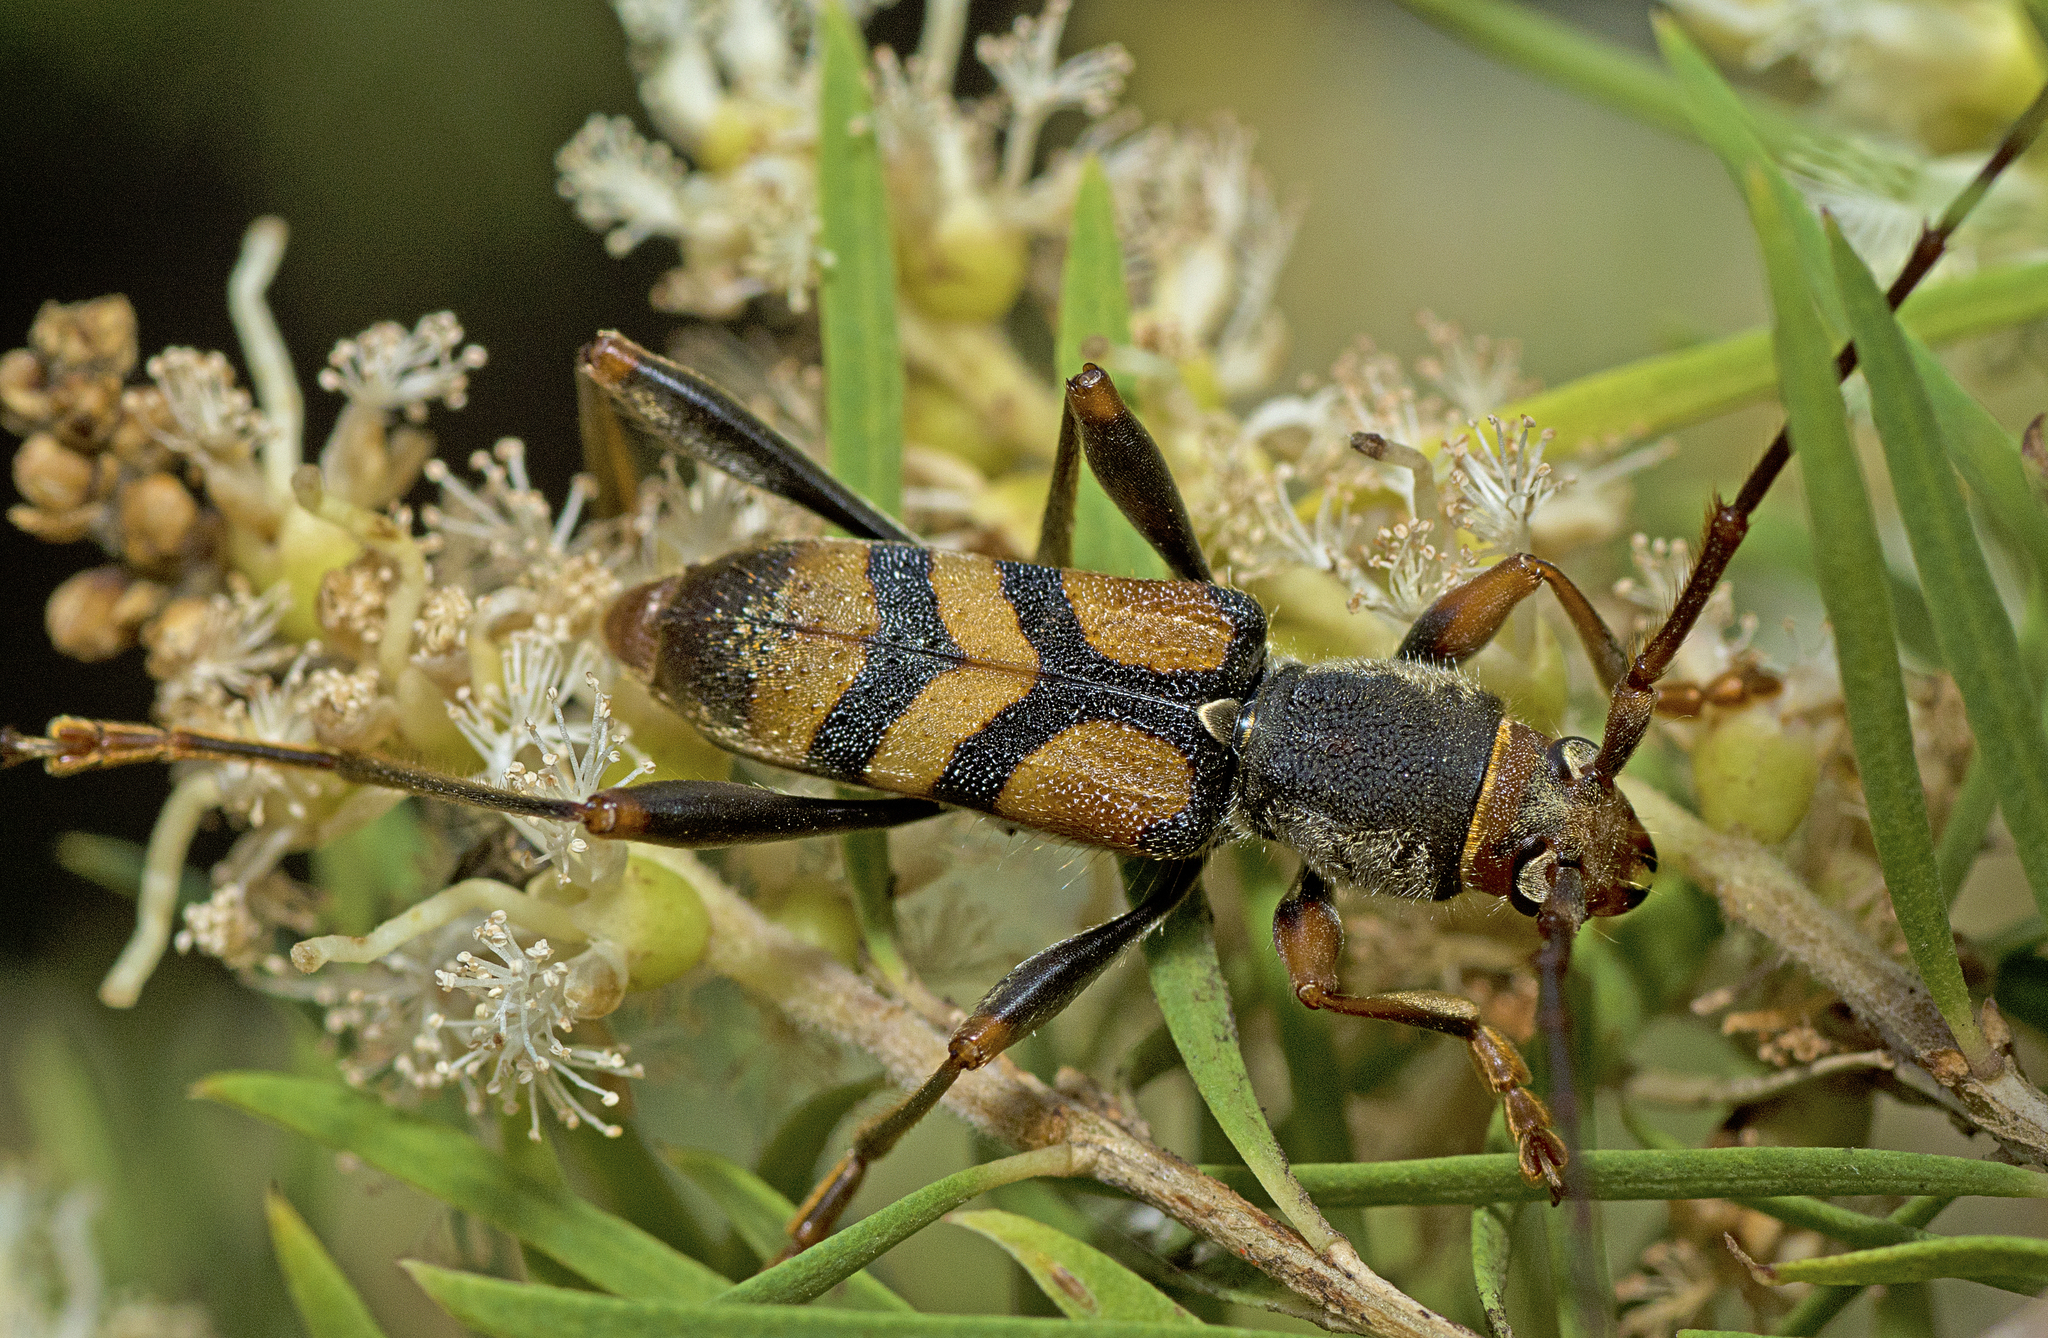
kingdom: Animalia
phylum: Arthropoda
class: Insecta
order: Coleoptera
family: Cerambycidae
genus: Aridaeus
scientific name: Aridaeus thoracicus
